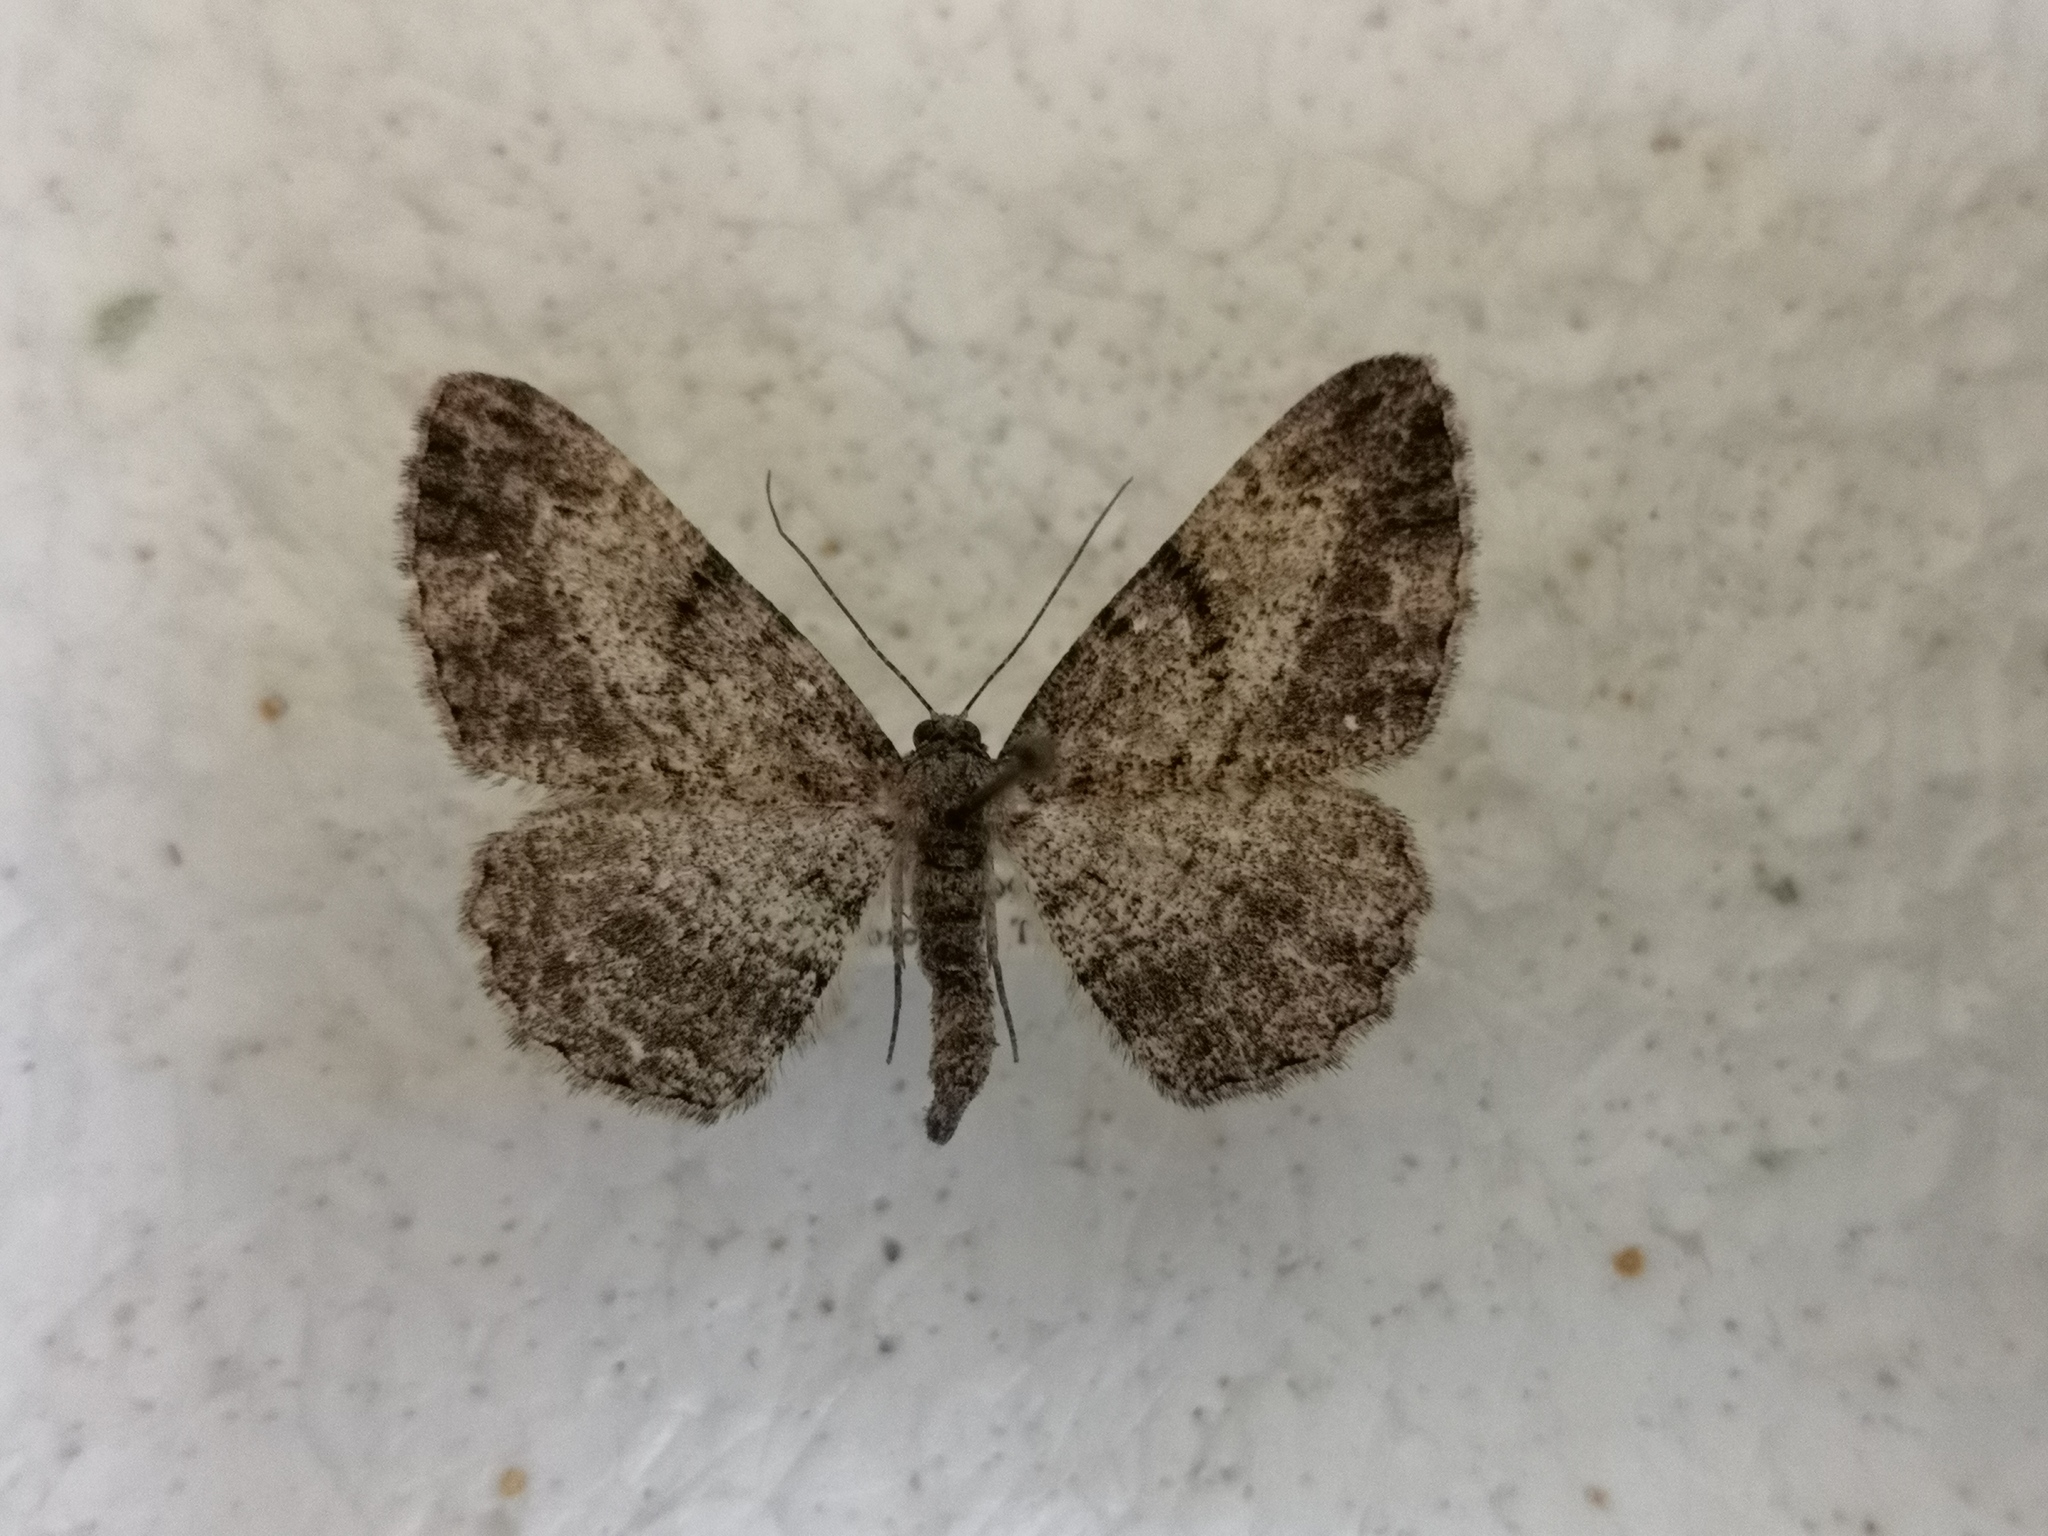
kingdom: Animalia
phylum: Arthropoda
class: Insecta
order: Lepidoptera
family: Geometridae
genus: Peribatodes
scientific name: Peribatodes rhomboidaria
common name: Willow beauty
